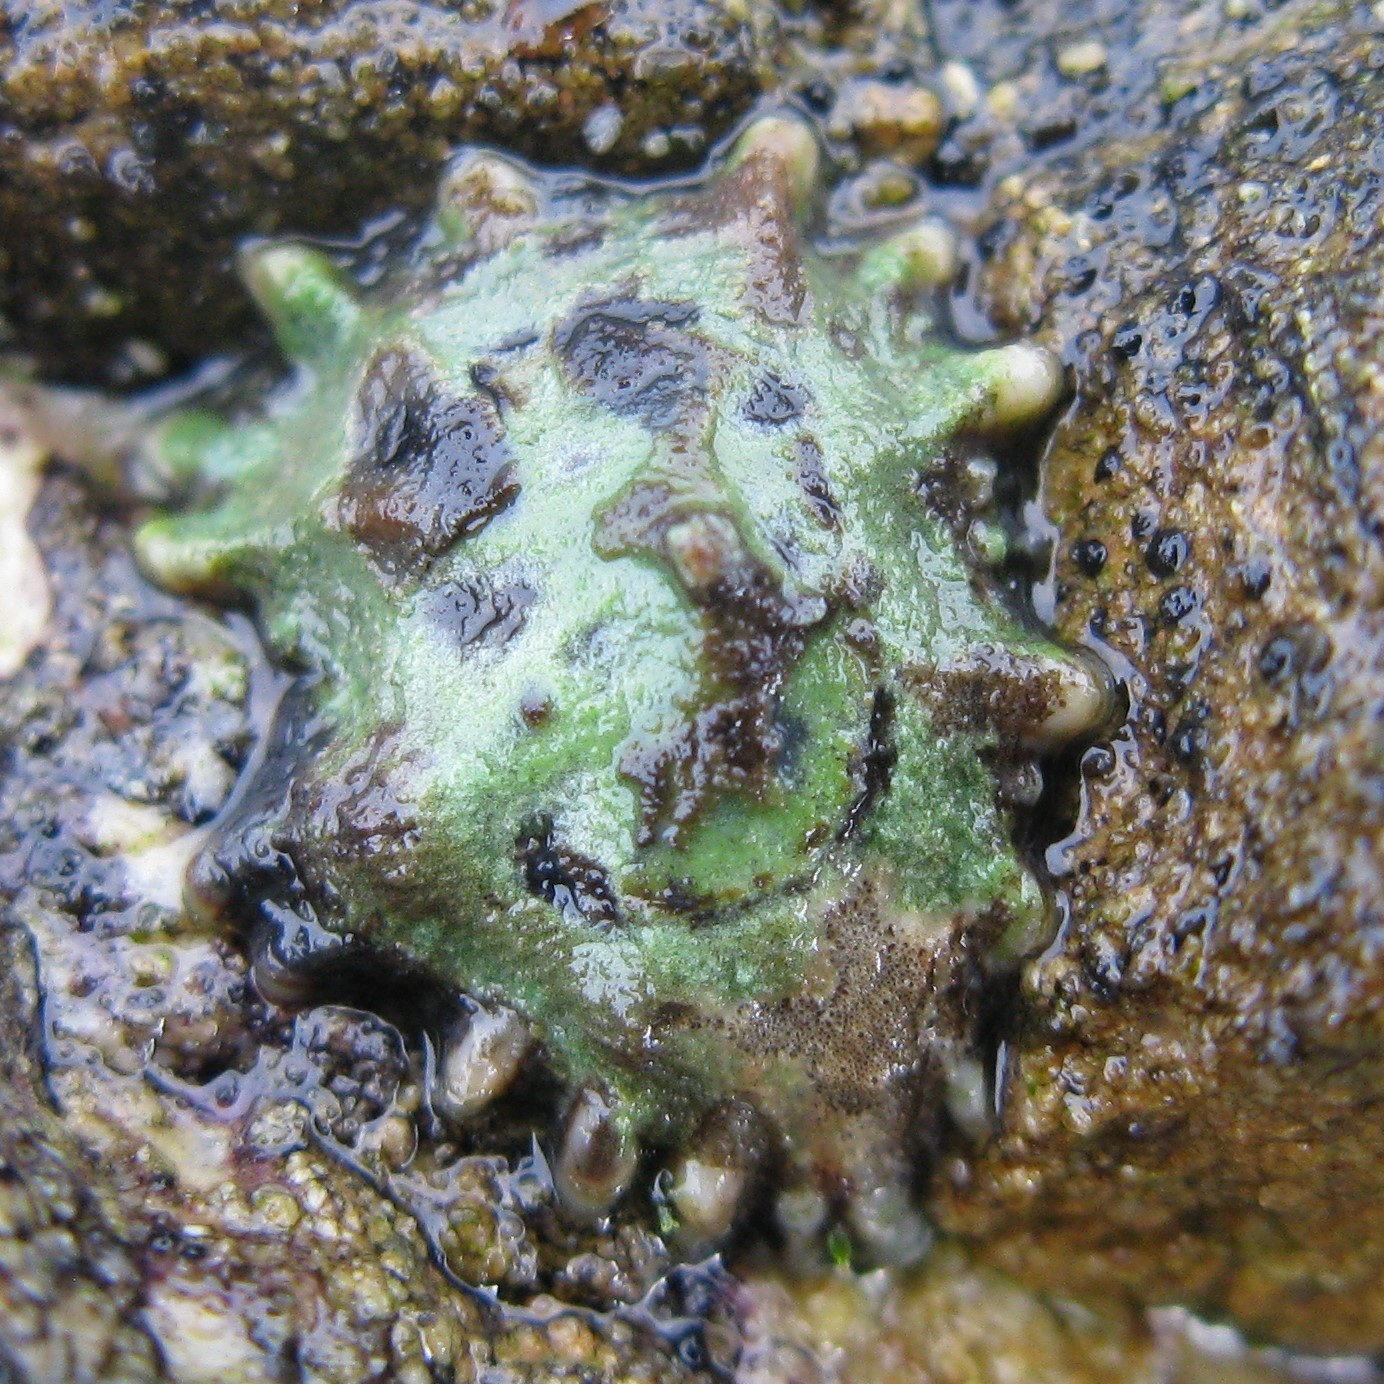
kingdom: Animalia
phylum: Mollusca
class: Gastropoda
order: Siphonariida
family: Siphonariidae
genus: Siphonaria
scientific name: Siphonaria australis
